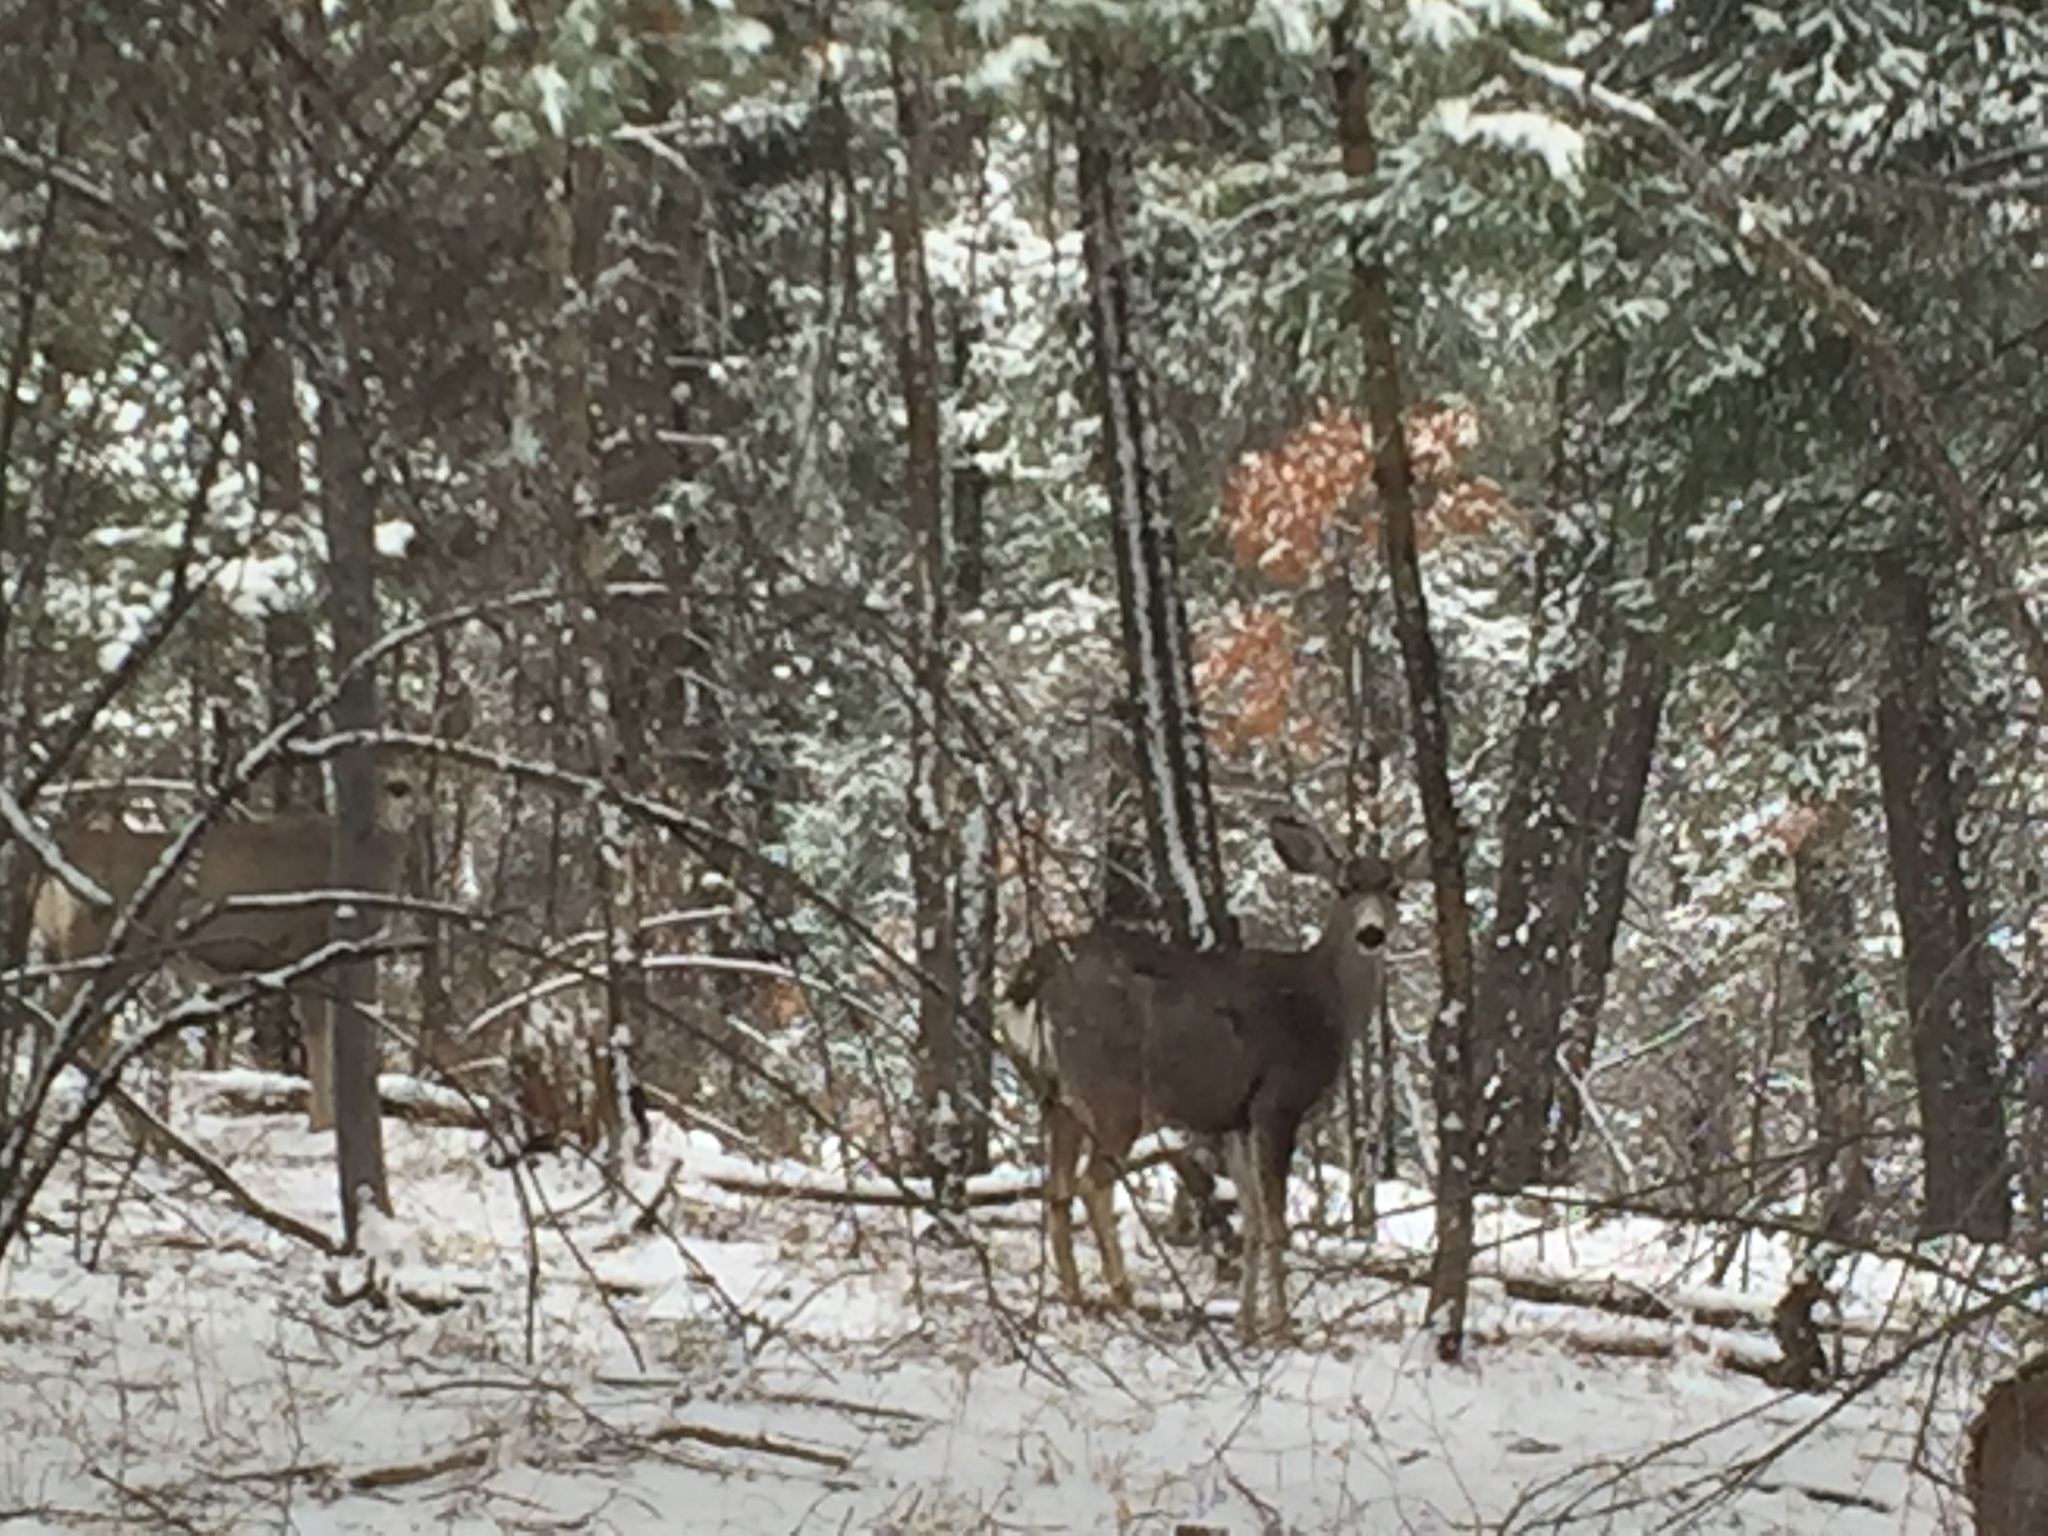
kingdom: Animalia
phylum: Chordata
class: Mammalia
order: Artiodactyla
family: Cervidae
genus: Odocoileus
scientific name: Odocoileus hemionus
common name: Mule deer
